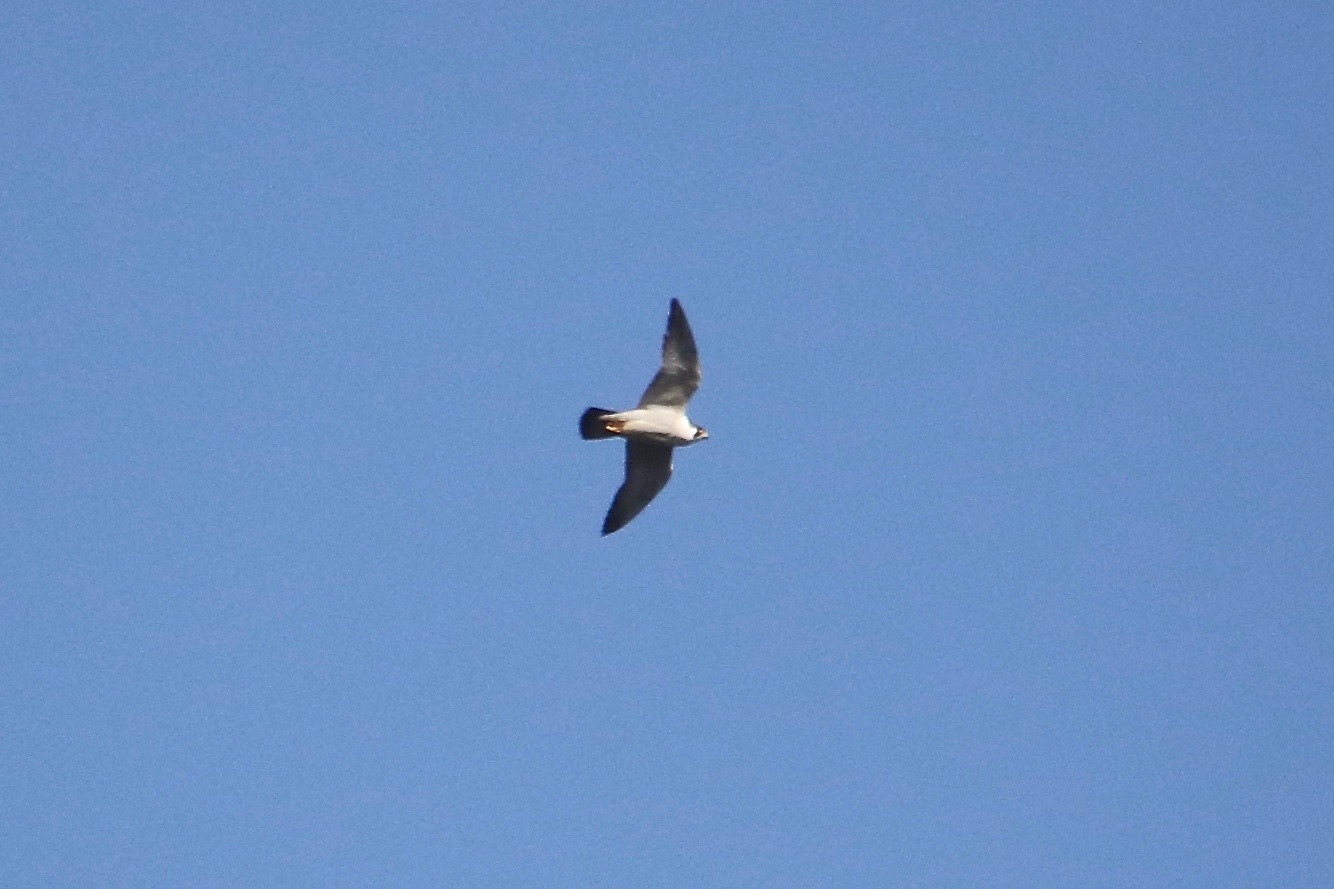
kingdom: Animalia
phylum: Chordata
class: Aves
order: Falconiformes
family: Falconidae
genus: Falco
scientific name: Falco peregrinus
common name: Peregrine falcon
